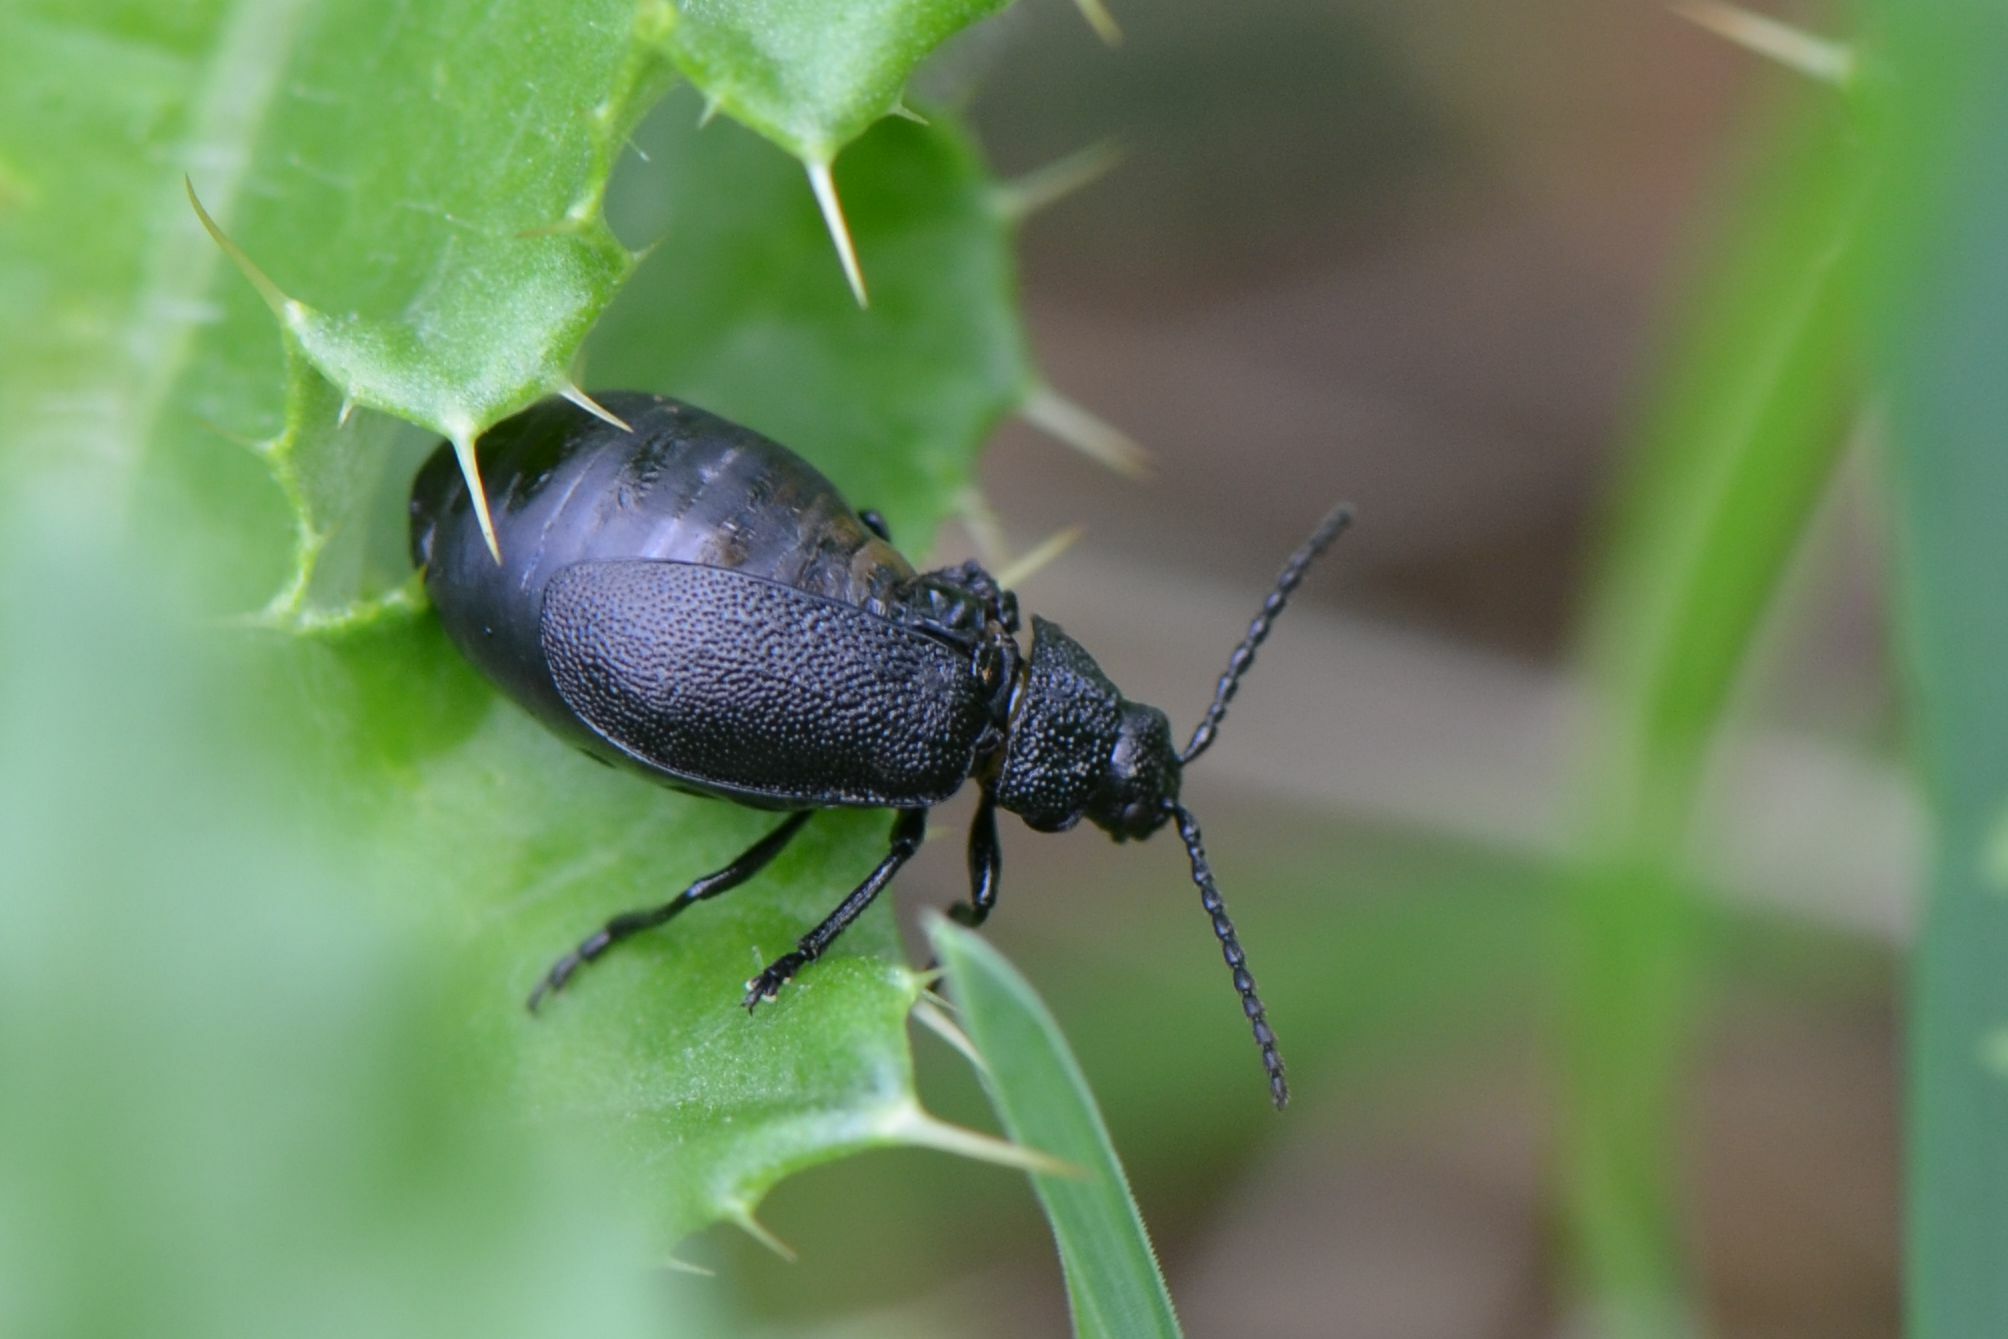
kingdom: Animalia
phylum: Arthropoda
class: Insecta
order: Coleoptera
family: Chrysomelidae
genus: Galeruca
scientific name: Galeruca tanaceti
